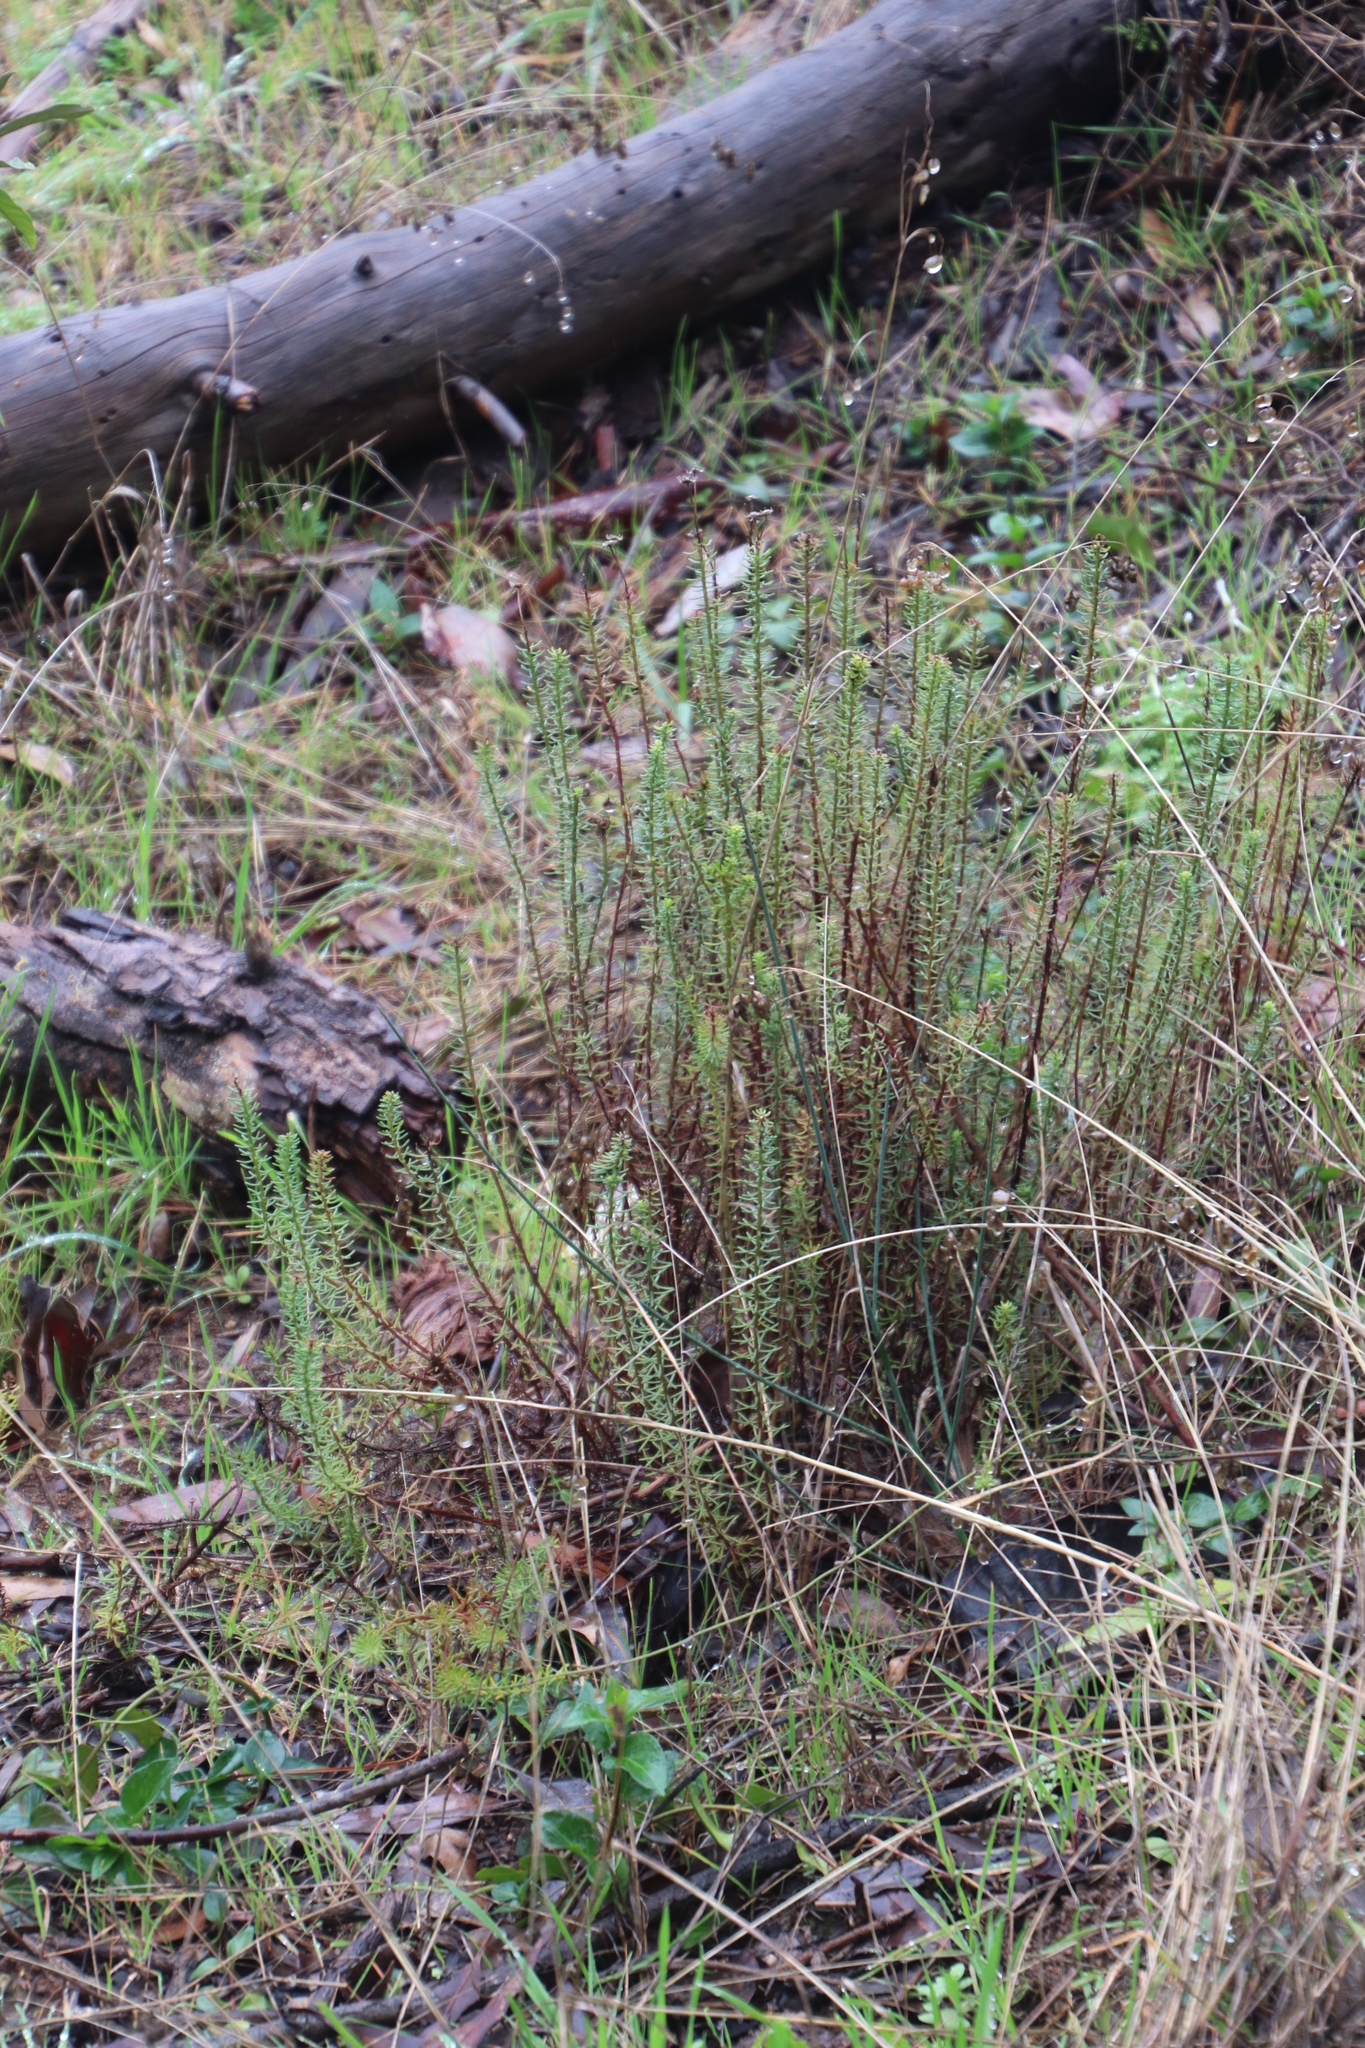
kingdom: Plantae
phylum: Tracheophyta
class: Magnoliopsida
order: Asterales
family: Asteraceae
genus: Chrysocoma
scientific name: Chrysocoma cernua
